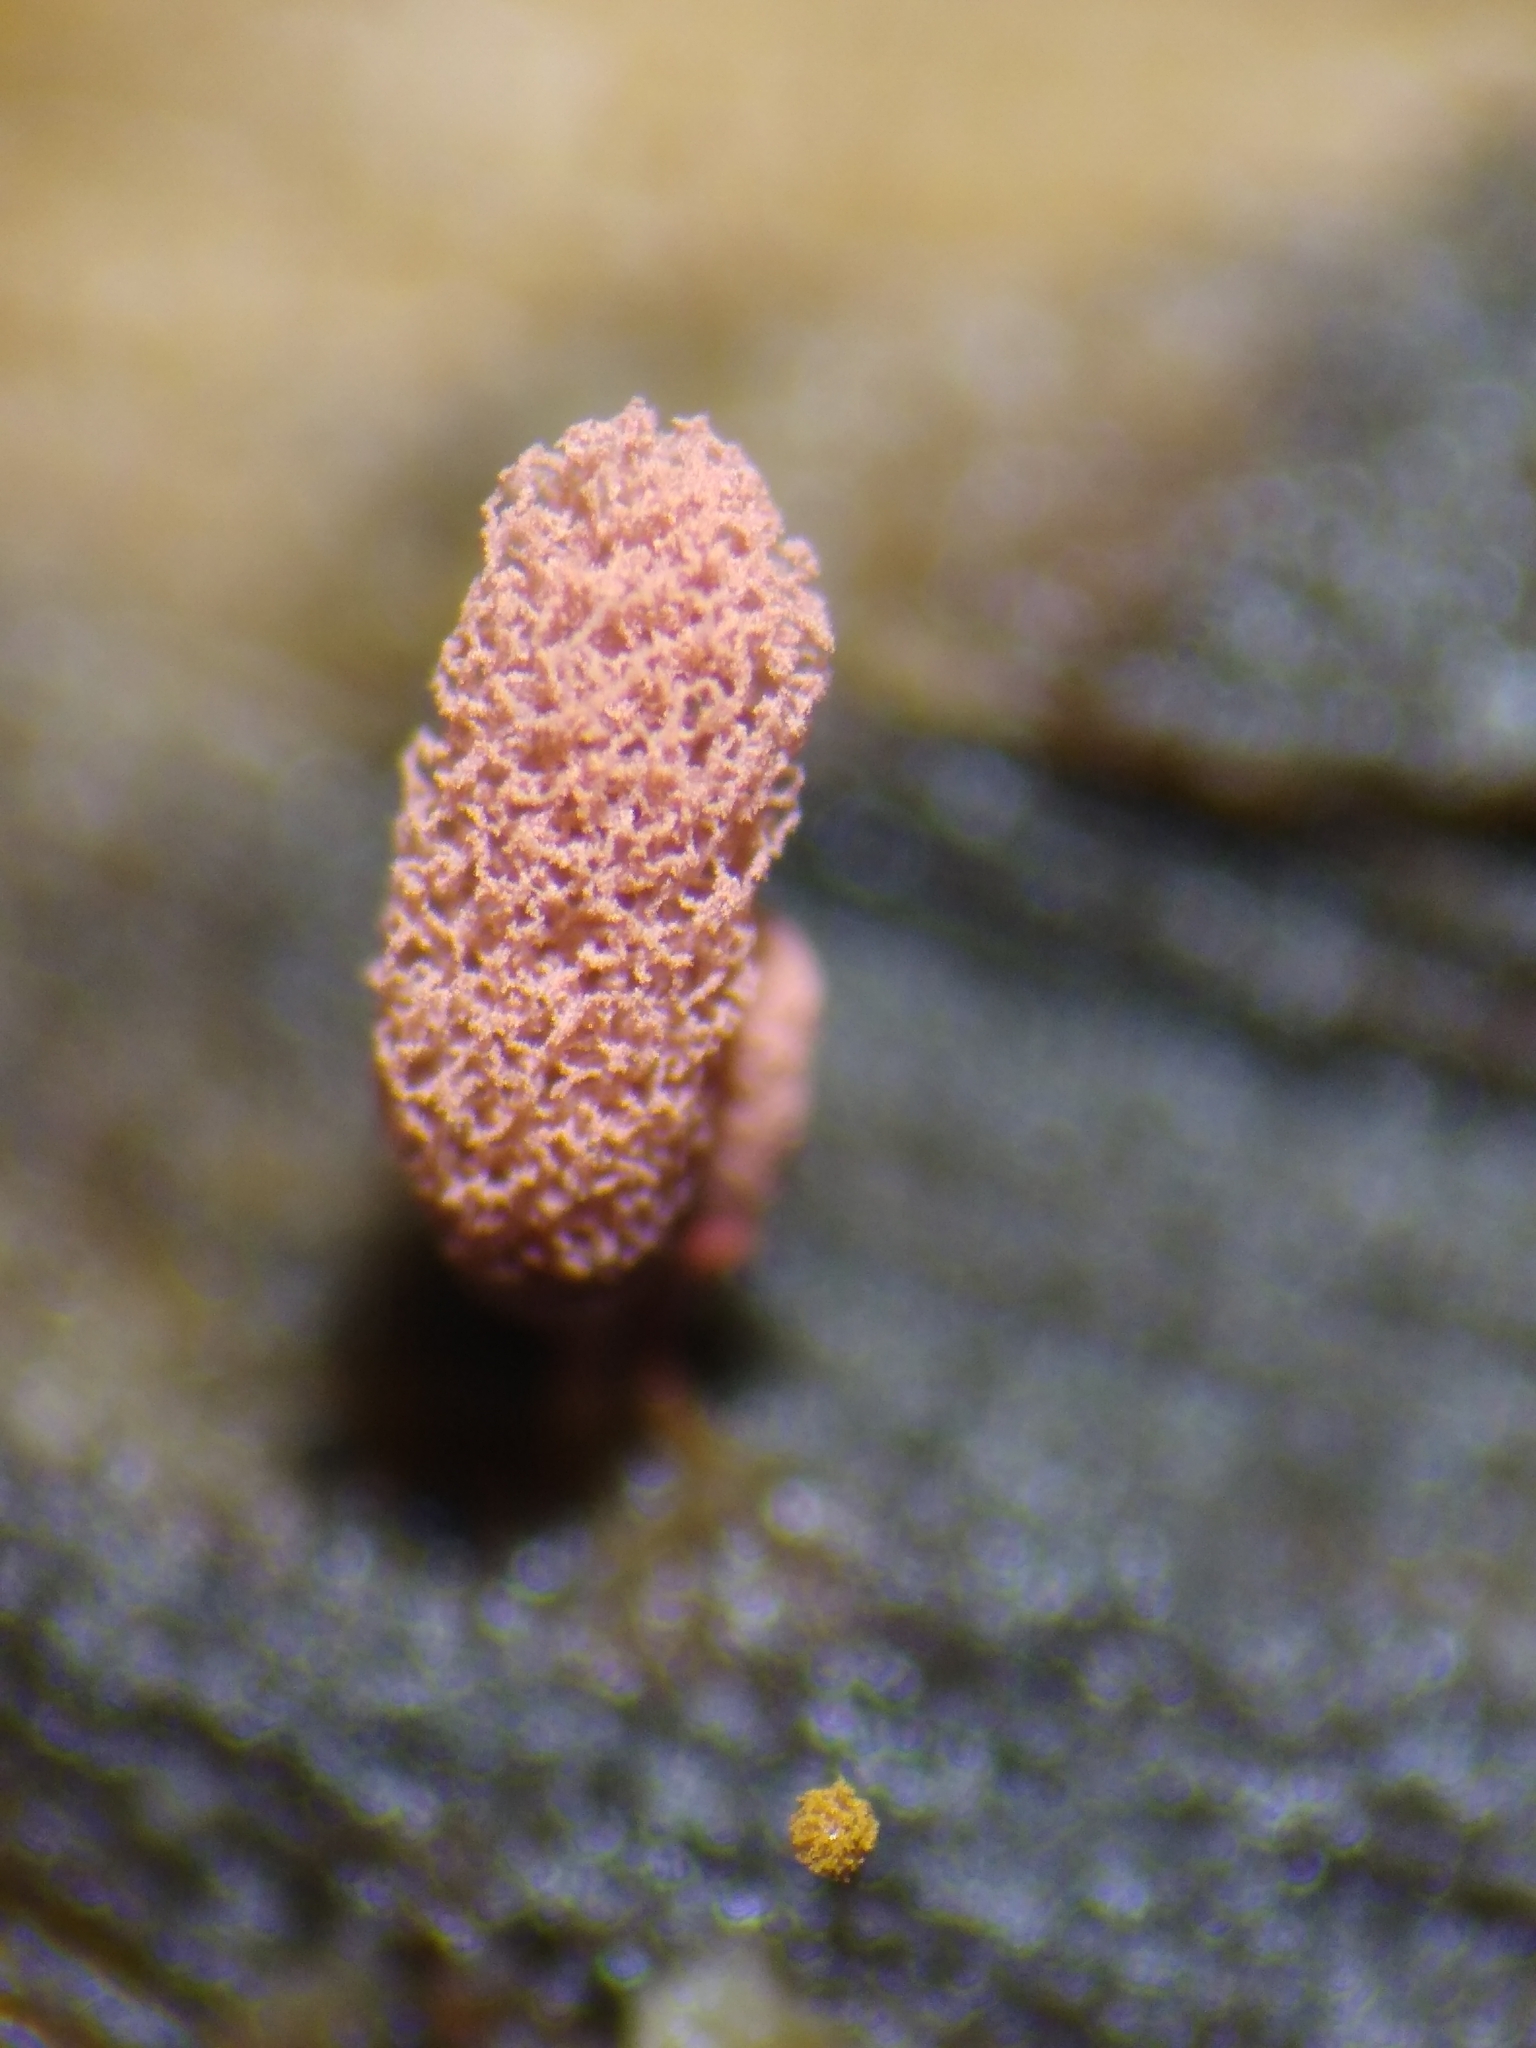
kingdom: Protozoa
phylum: Mycetozoa
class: Myxomycetes
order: Trichiales
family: Arcyriaceae
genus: Arcyria
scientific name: Arcyria insignis
